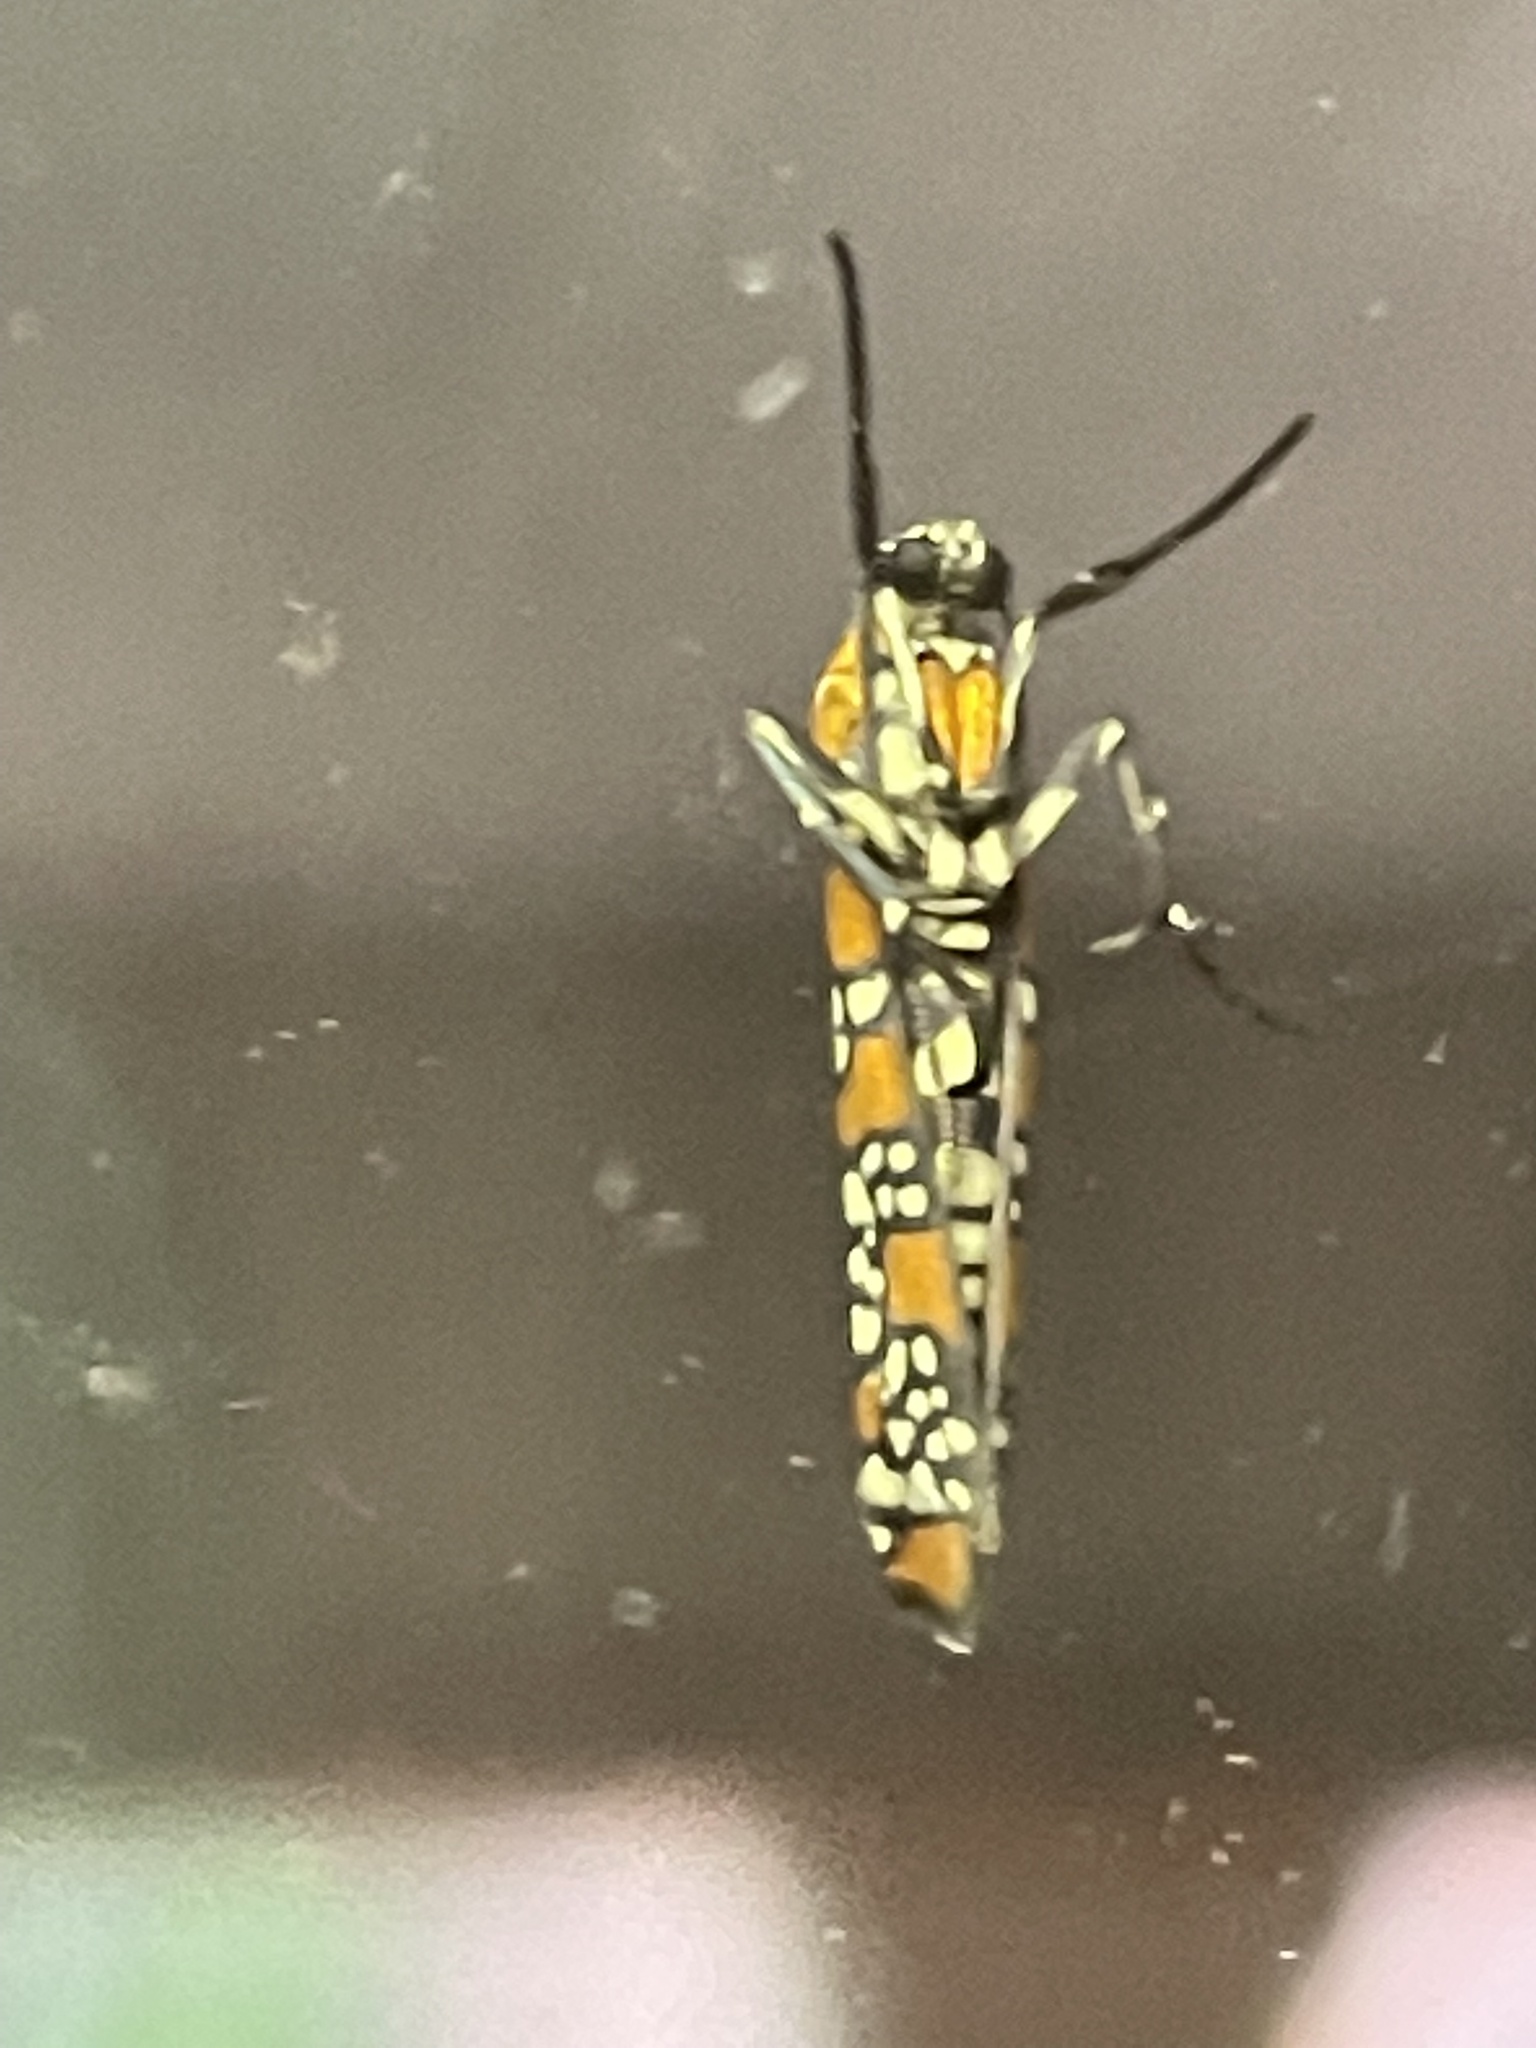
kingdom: Animalia
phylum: Arthropoda
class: Insecta
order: Lepidoptera
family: Attevidae
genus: Atteva
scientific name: Atteva punctella
